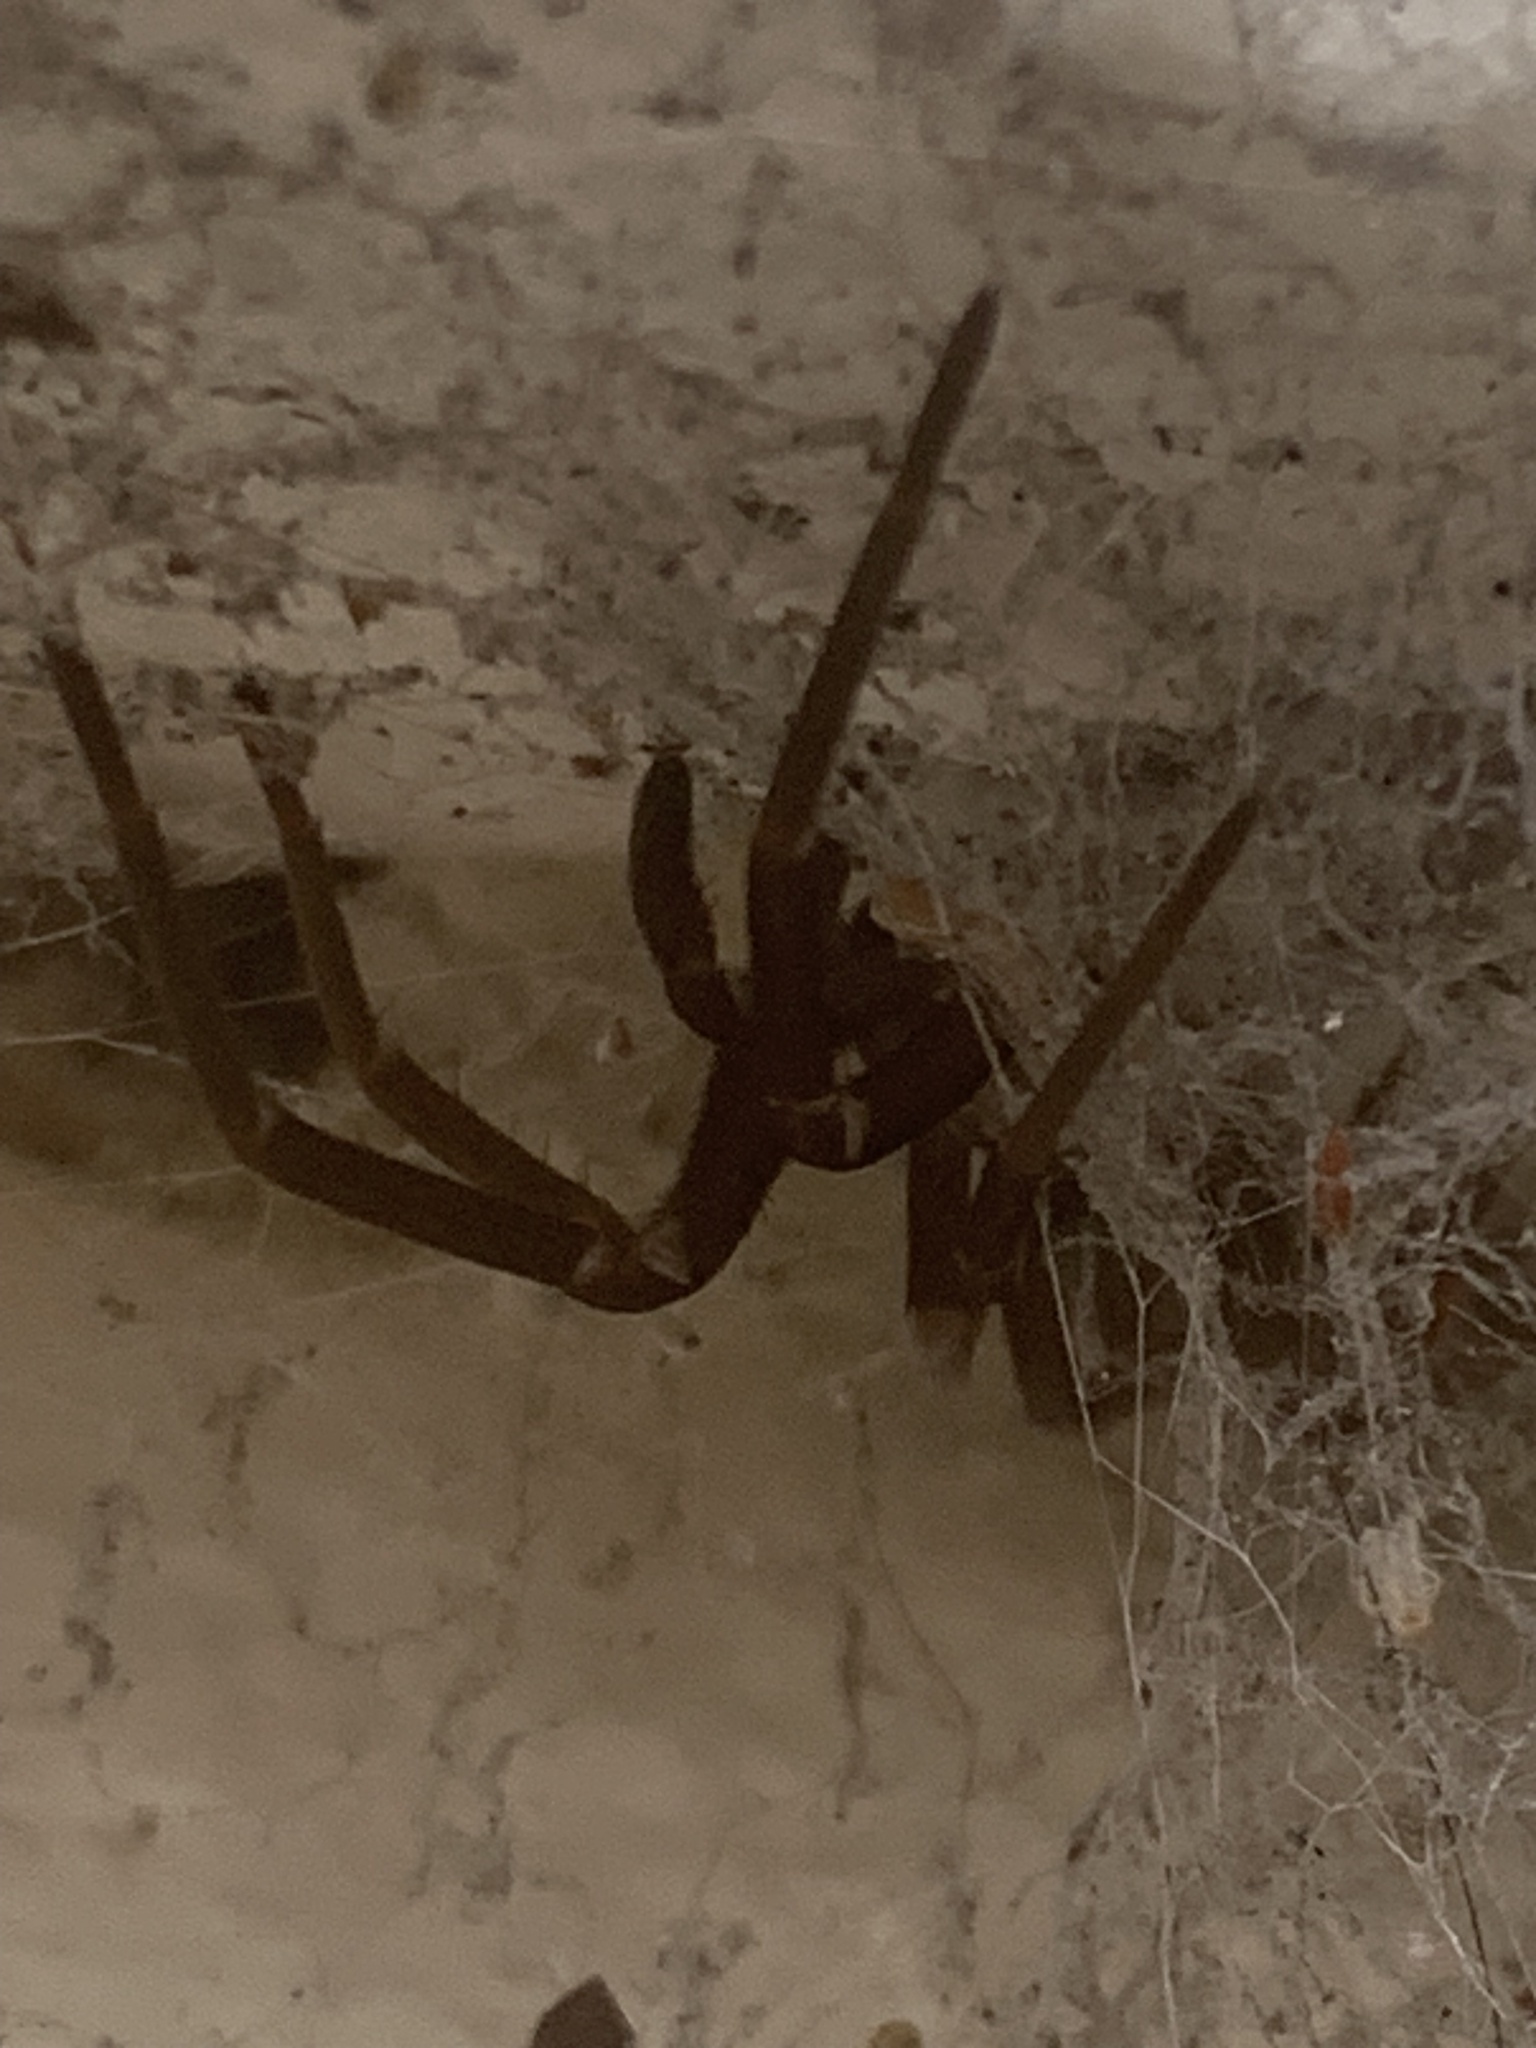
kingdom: Animalia
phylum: Arthropoda
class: Arachnida
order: Araneae
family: Filistatidae
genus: Kukulcania
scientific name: Kukulcania hibernalis
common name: Crevice weaver
